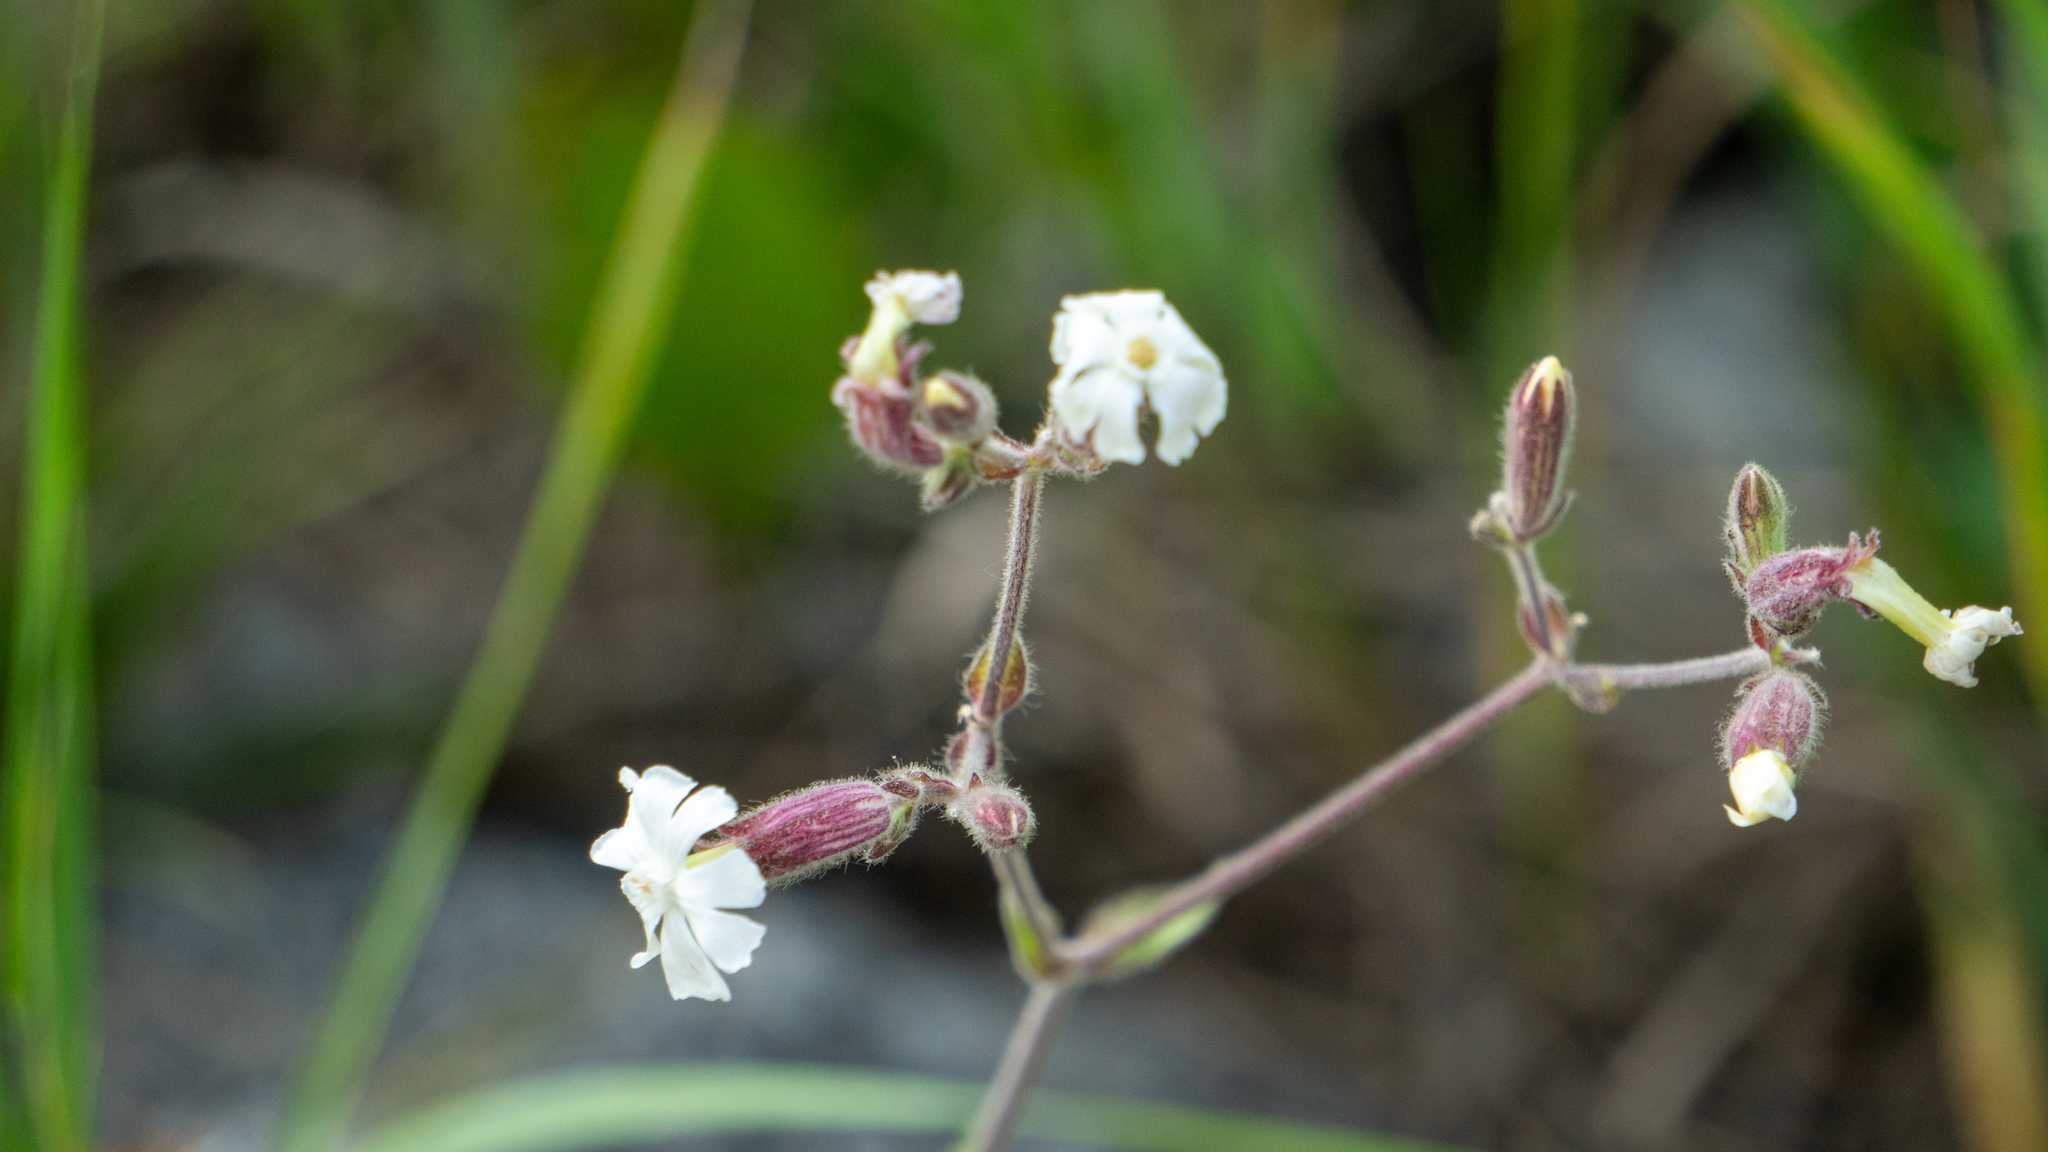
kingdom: Plantae
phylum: Tracheophyta
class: Magnoliopsida
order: Caryophyllales
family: Caryophyllaceae
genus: Silene
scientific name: Silene latifolia
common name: White campion
